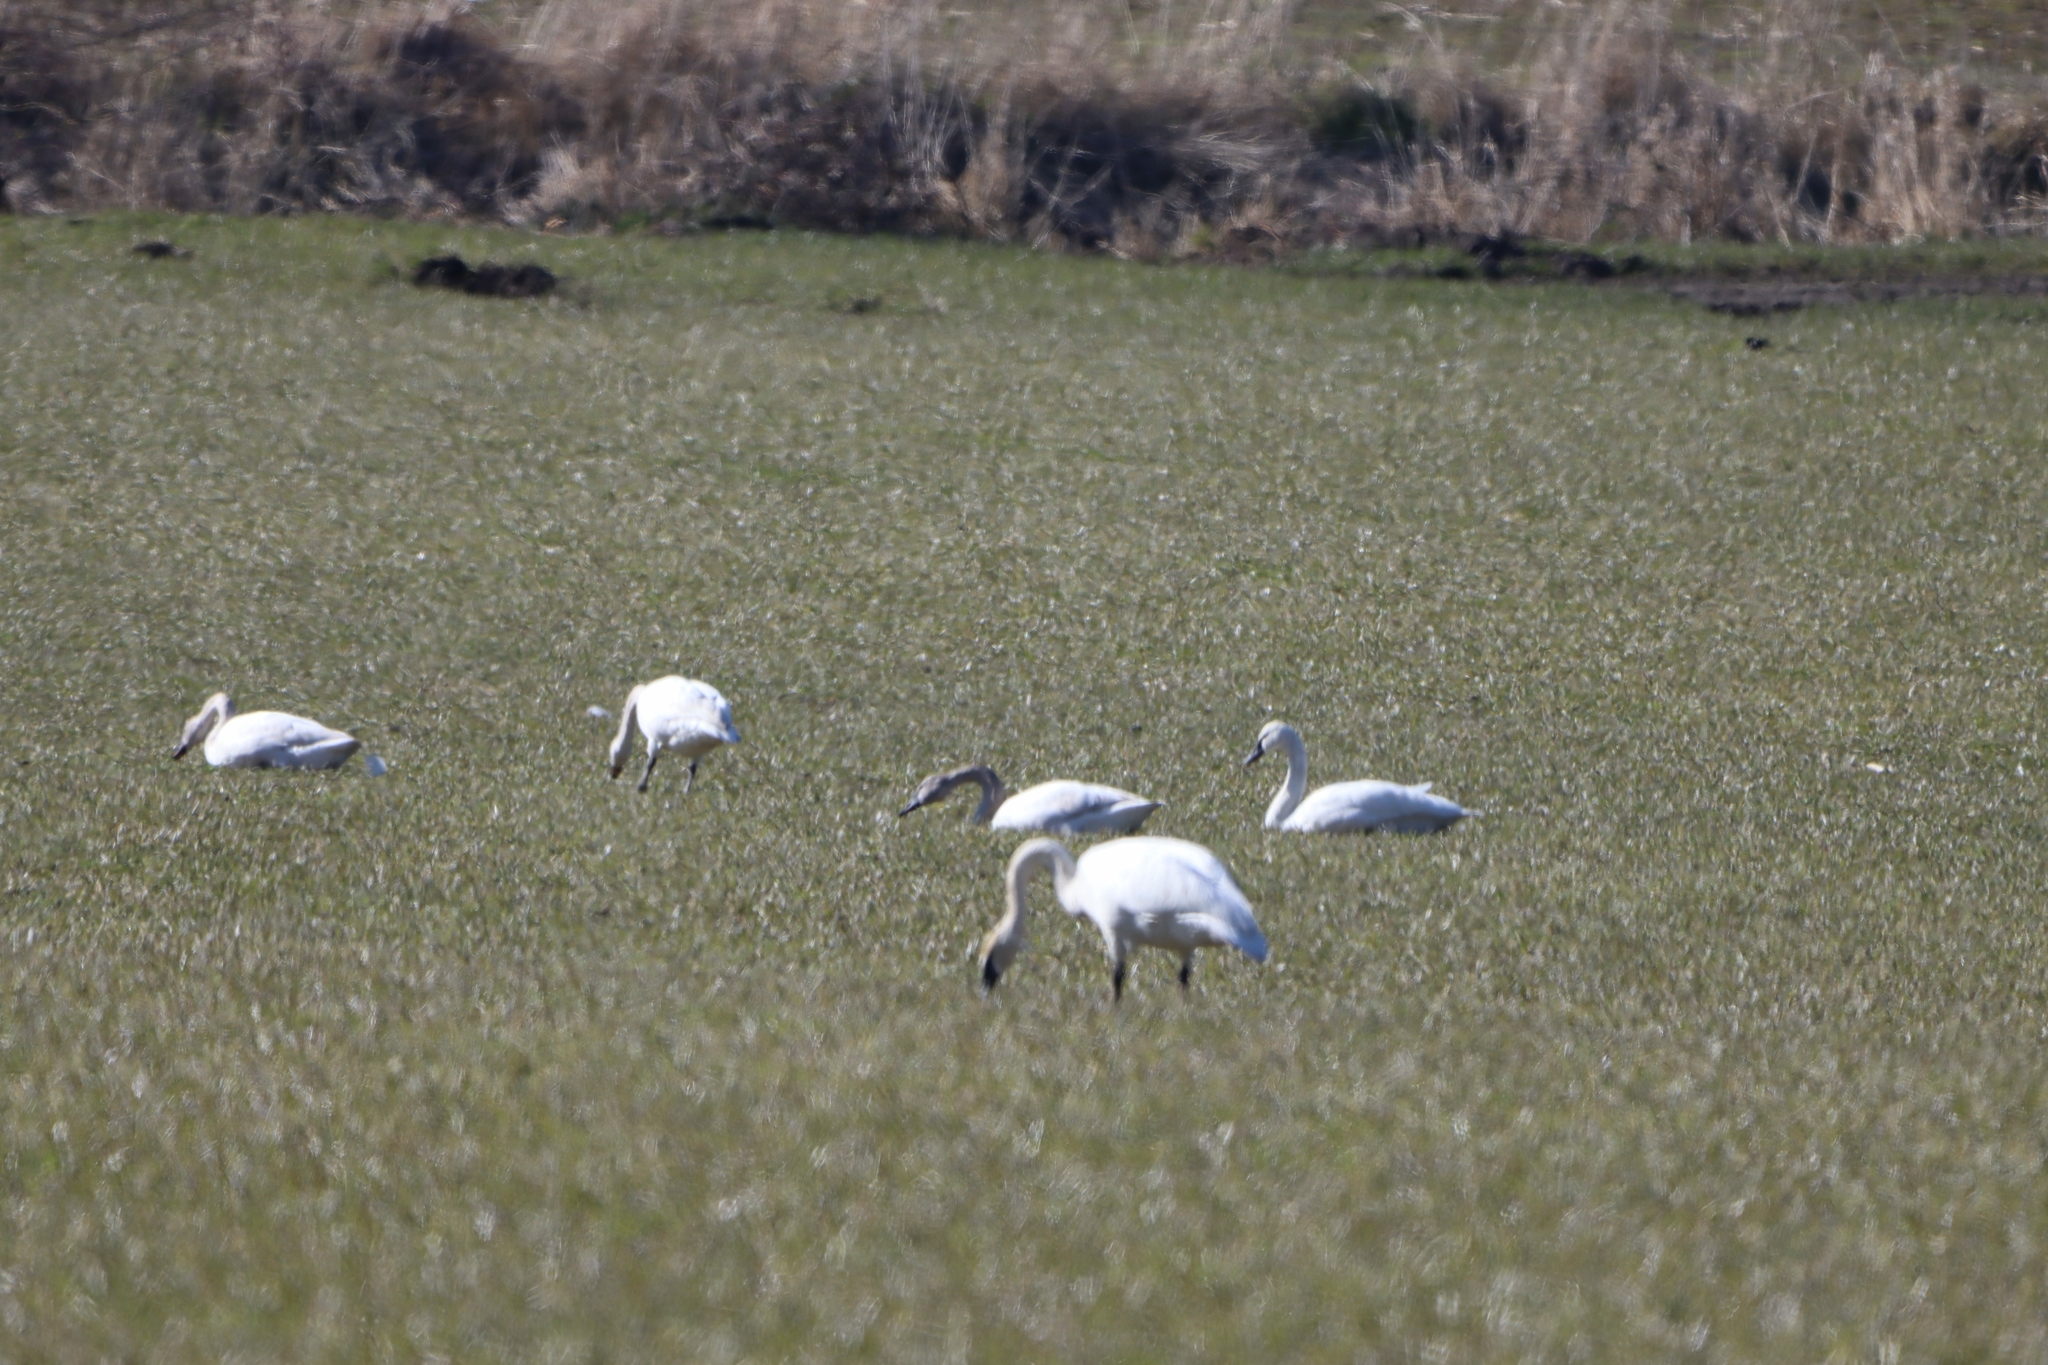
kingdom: Animalia
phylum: Chordata
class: Aves
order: Anseriformes
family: Anatidae
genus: Cygnus
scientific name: Cygnus buccinator
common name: Trumpeter swan
